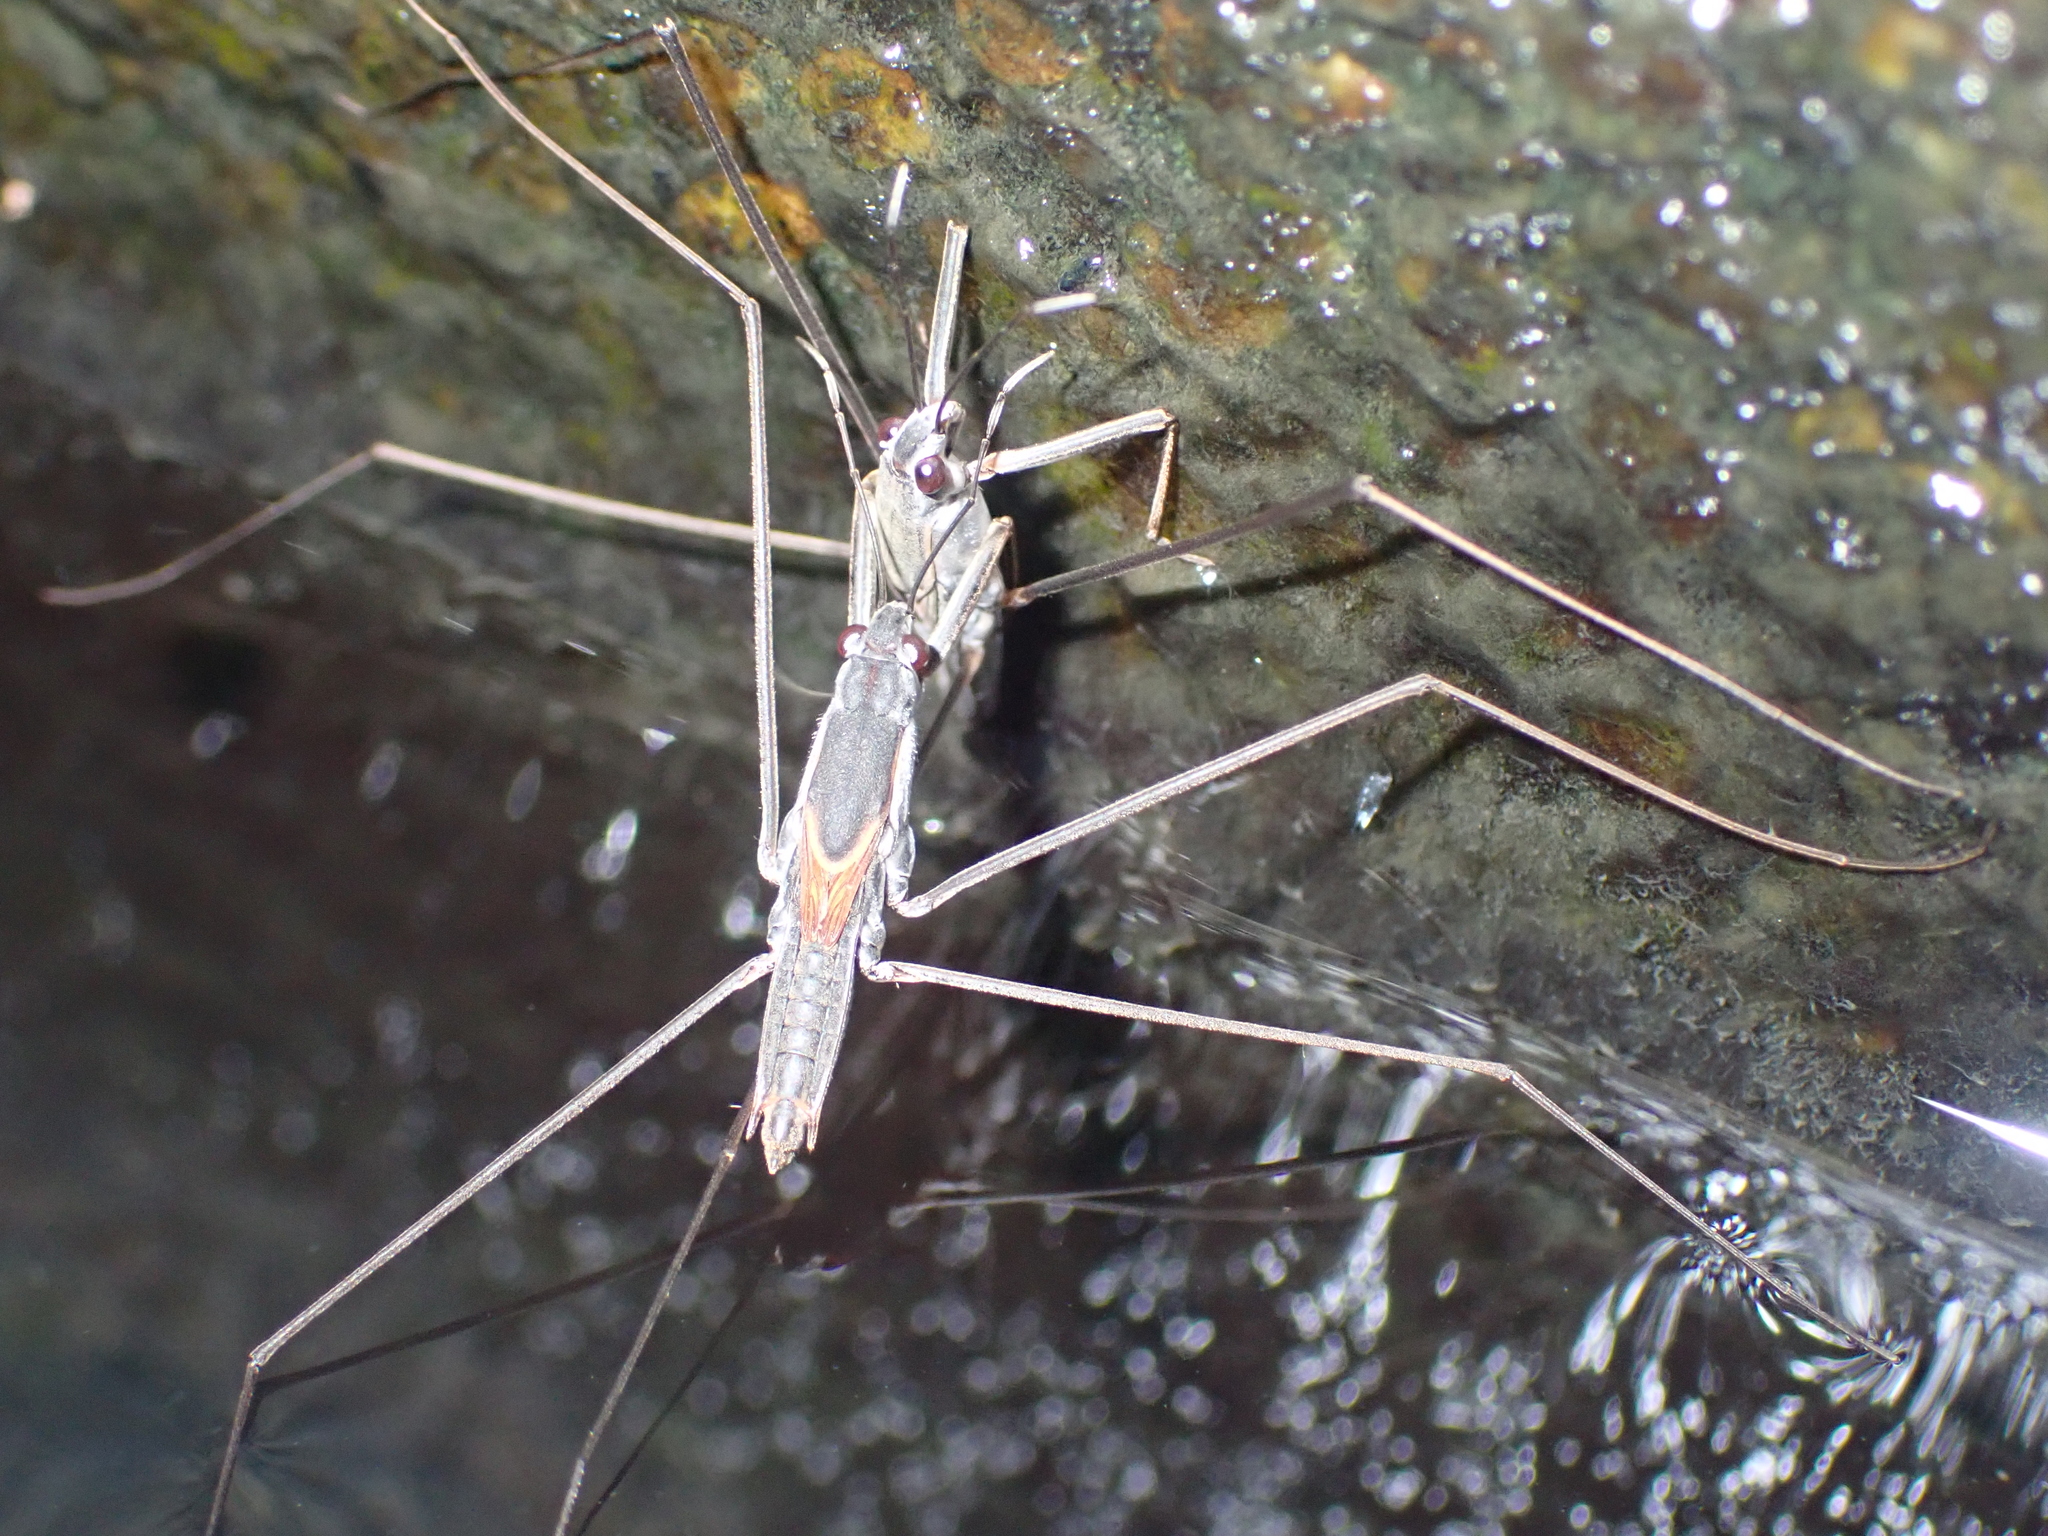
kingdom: Animalia
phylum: Arthropoda
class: Insecta
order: Hemiptera
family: Gerridae
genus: Aquarius
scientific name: Aquarius adelaidis
